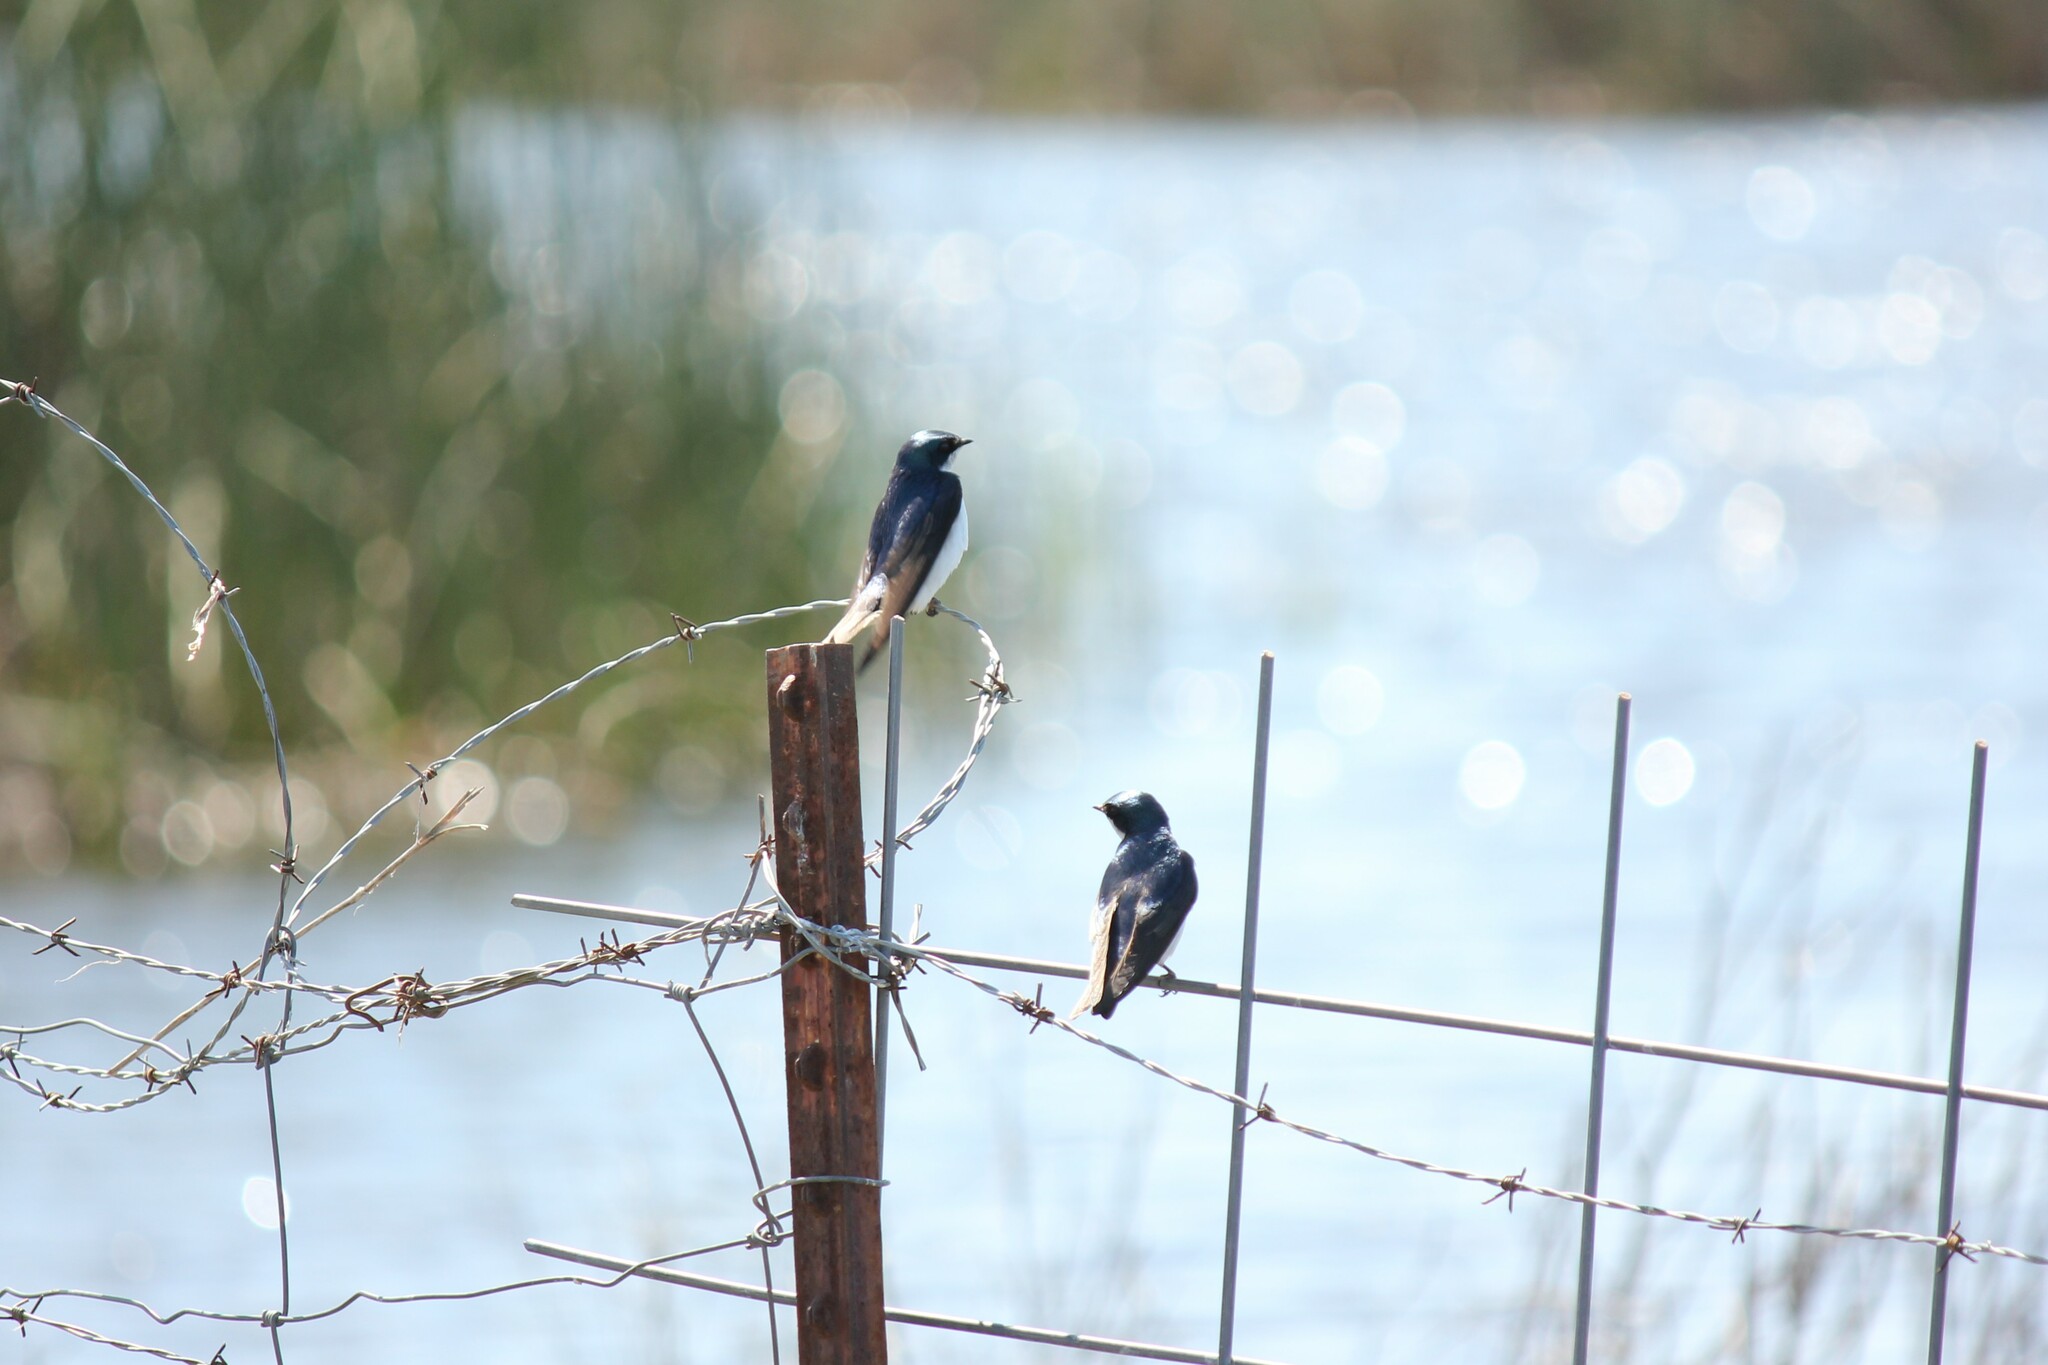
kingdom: Animalia
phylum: Chordata
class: Aves
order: Passeriformes
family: Hirundinidae
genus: Tachycineta
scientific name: Tachycineta bicolor
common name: Tree swallow
